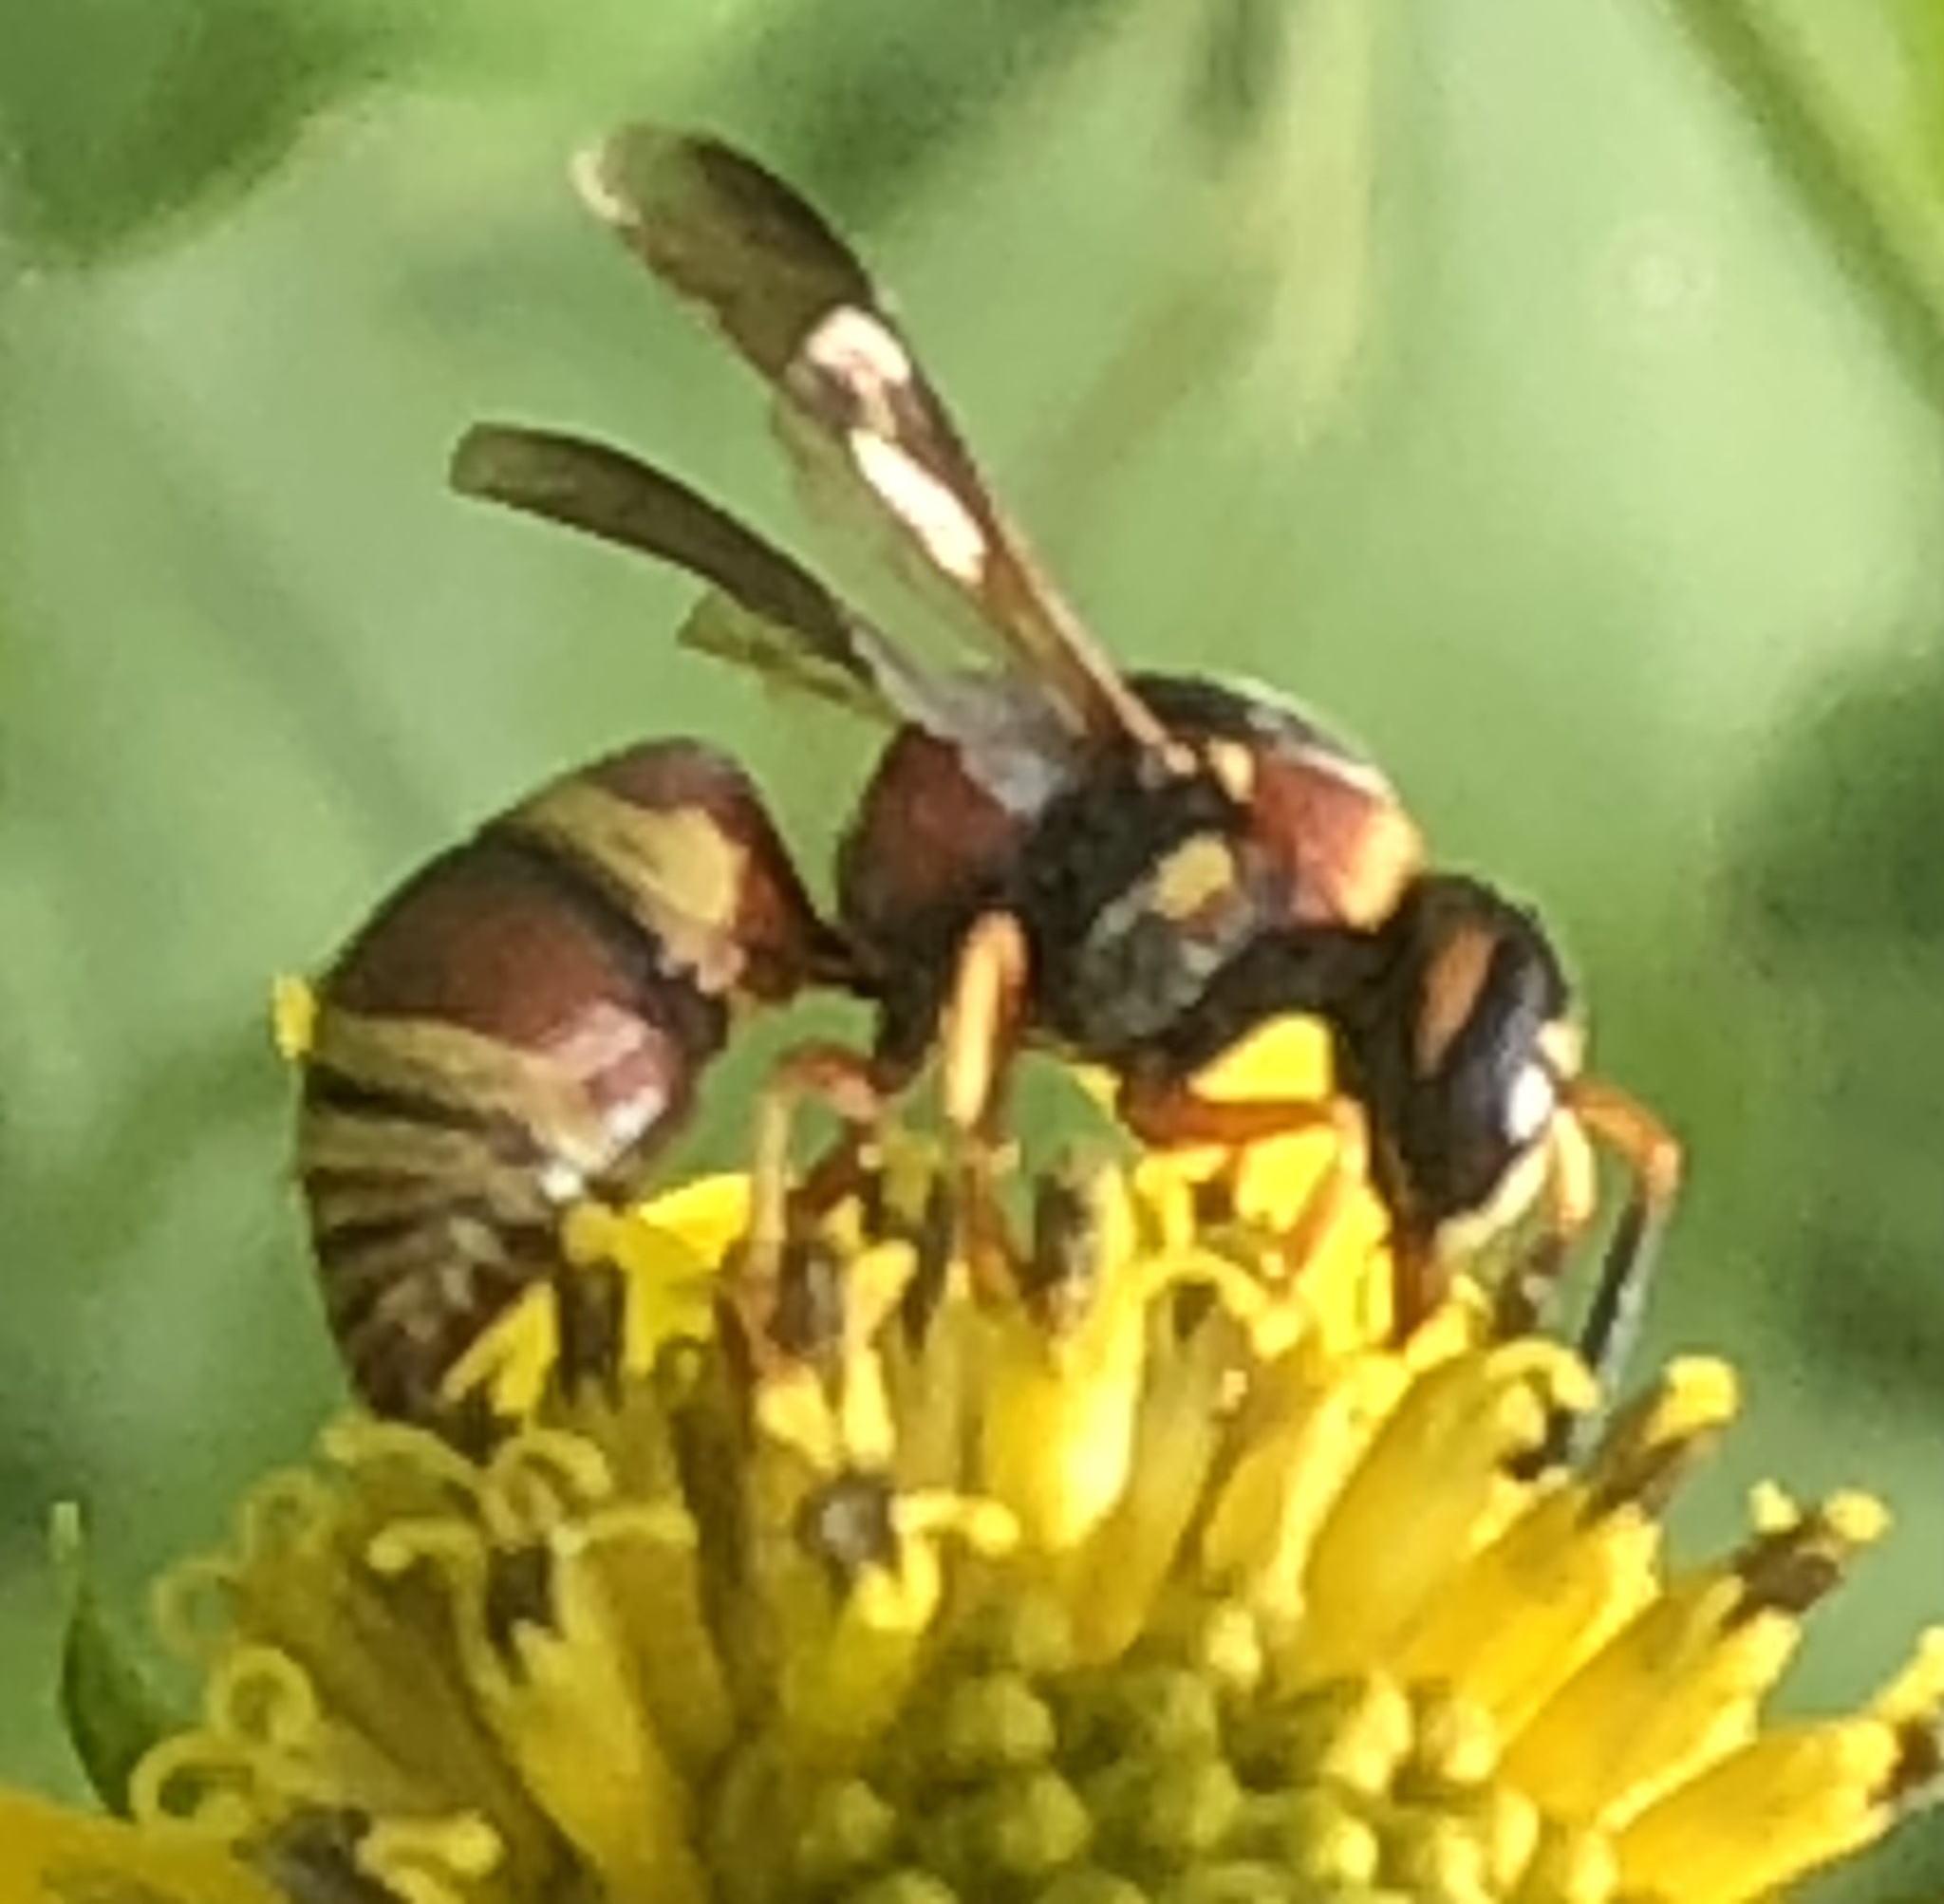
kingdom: Animalia
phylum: Arthropoda
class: Insecta
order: Hymenoptera
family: Eumenidae
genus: Euodynerus
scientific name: Euodynerus
